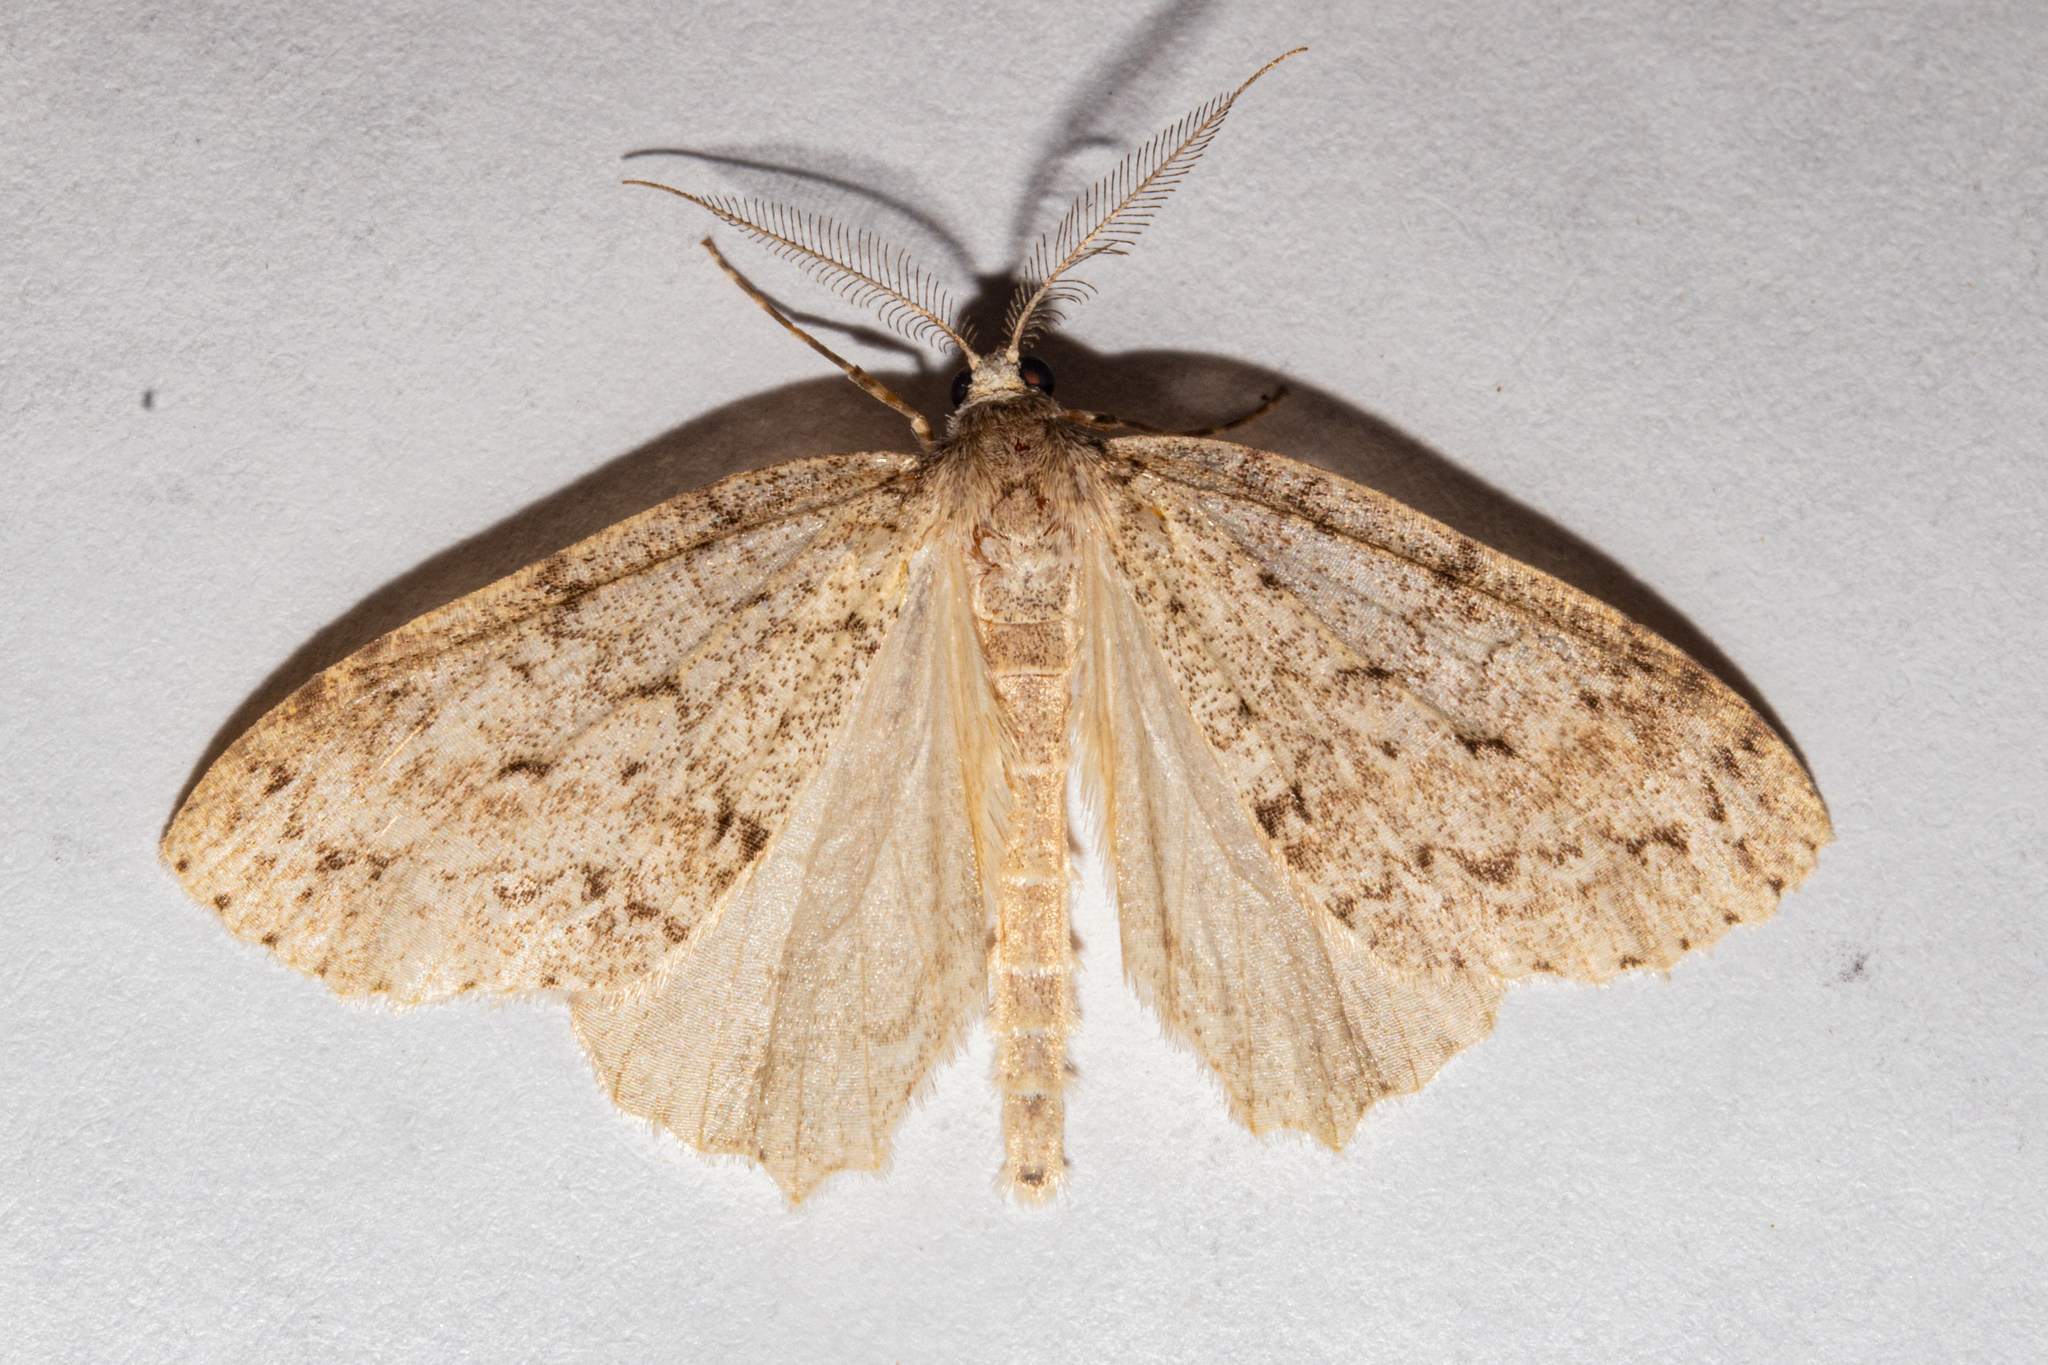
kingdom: Animalia
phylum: Arthropoda
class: Insecta
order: Lepidoptera
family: Geometridae
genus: Pseudocoremia
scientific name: Pseudocoremia fenerata
